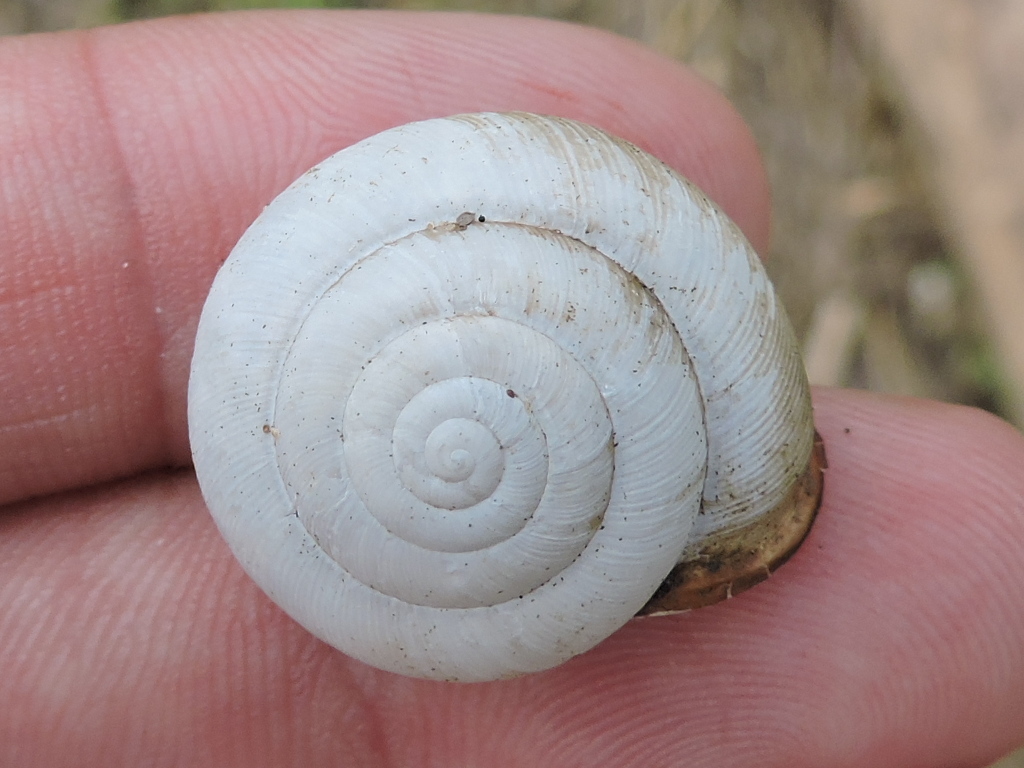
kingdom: Animalia
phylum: Mollusca
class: Gastropoda
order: Stylommatophora
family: Polygyridae
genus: Patera
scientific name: Patera roemeri
